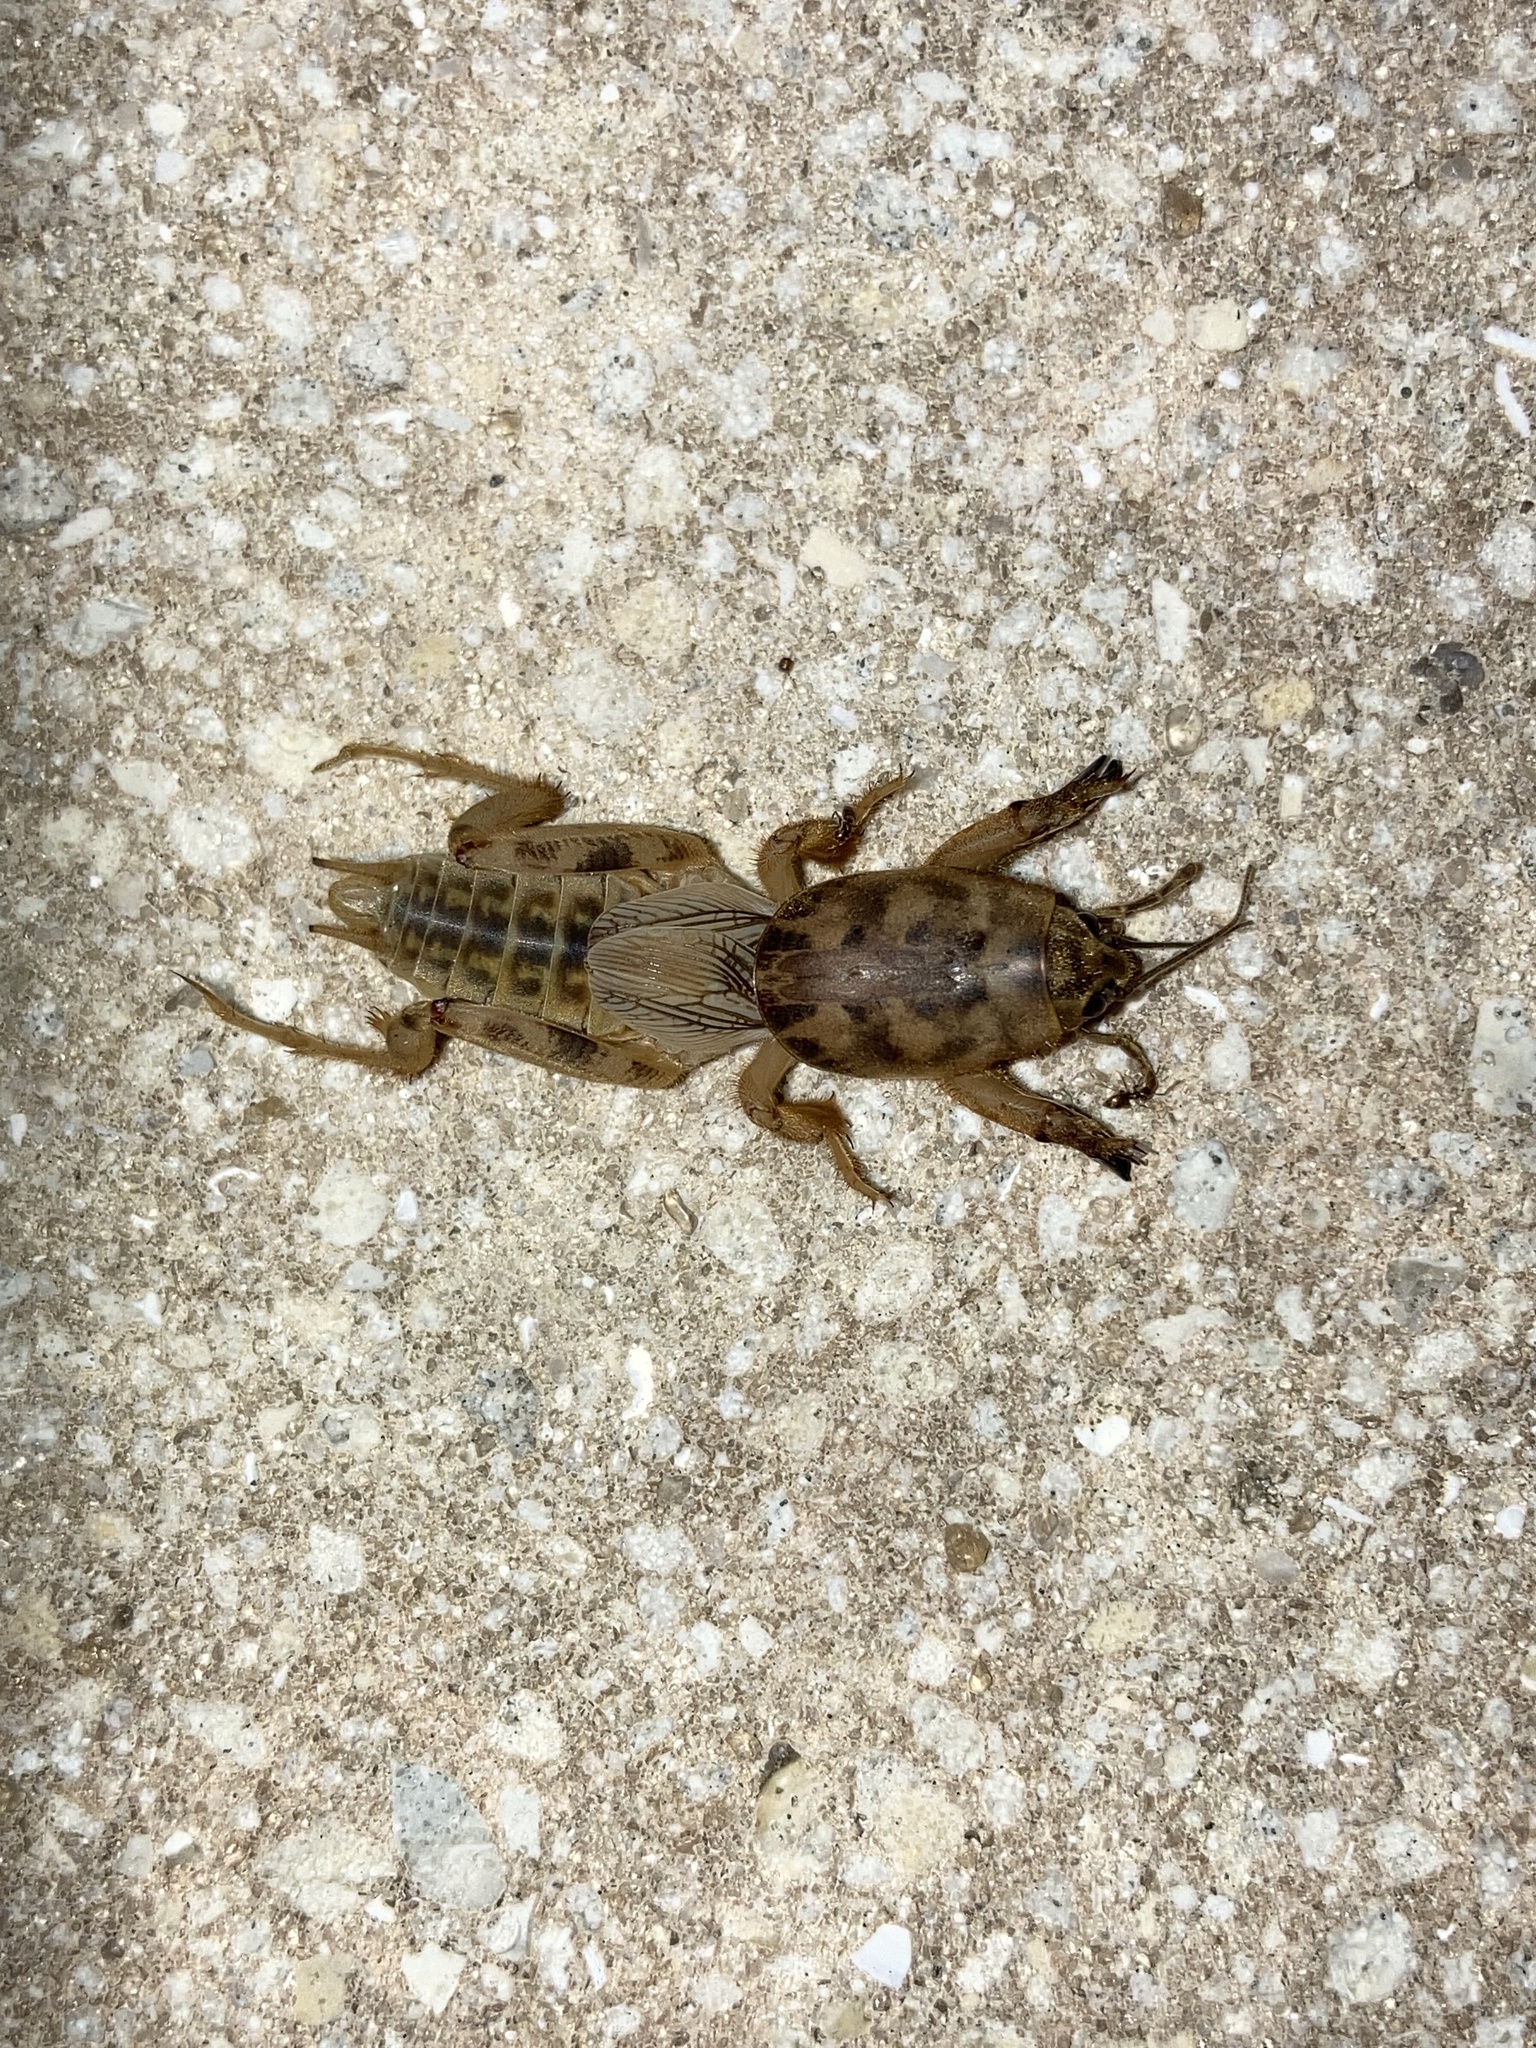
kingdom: Animalia
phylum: Arthropoda
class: Insecta
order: Orthoptera
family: Gryllotalpidae
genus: Neoscapteriscus
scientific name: Neoscapteriscus abbreviatus
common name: Short-winged mole cricket
